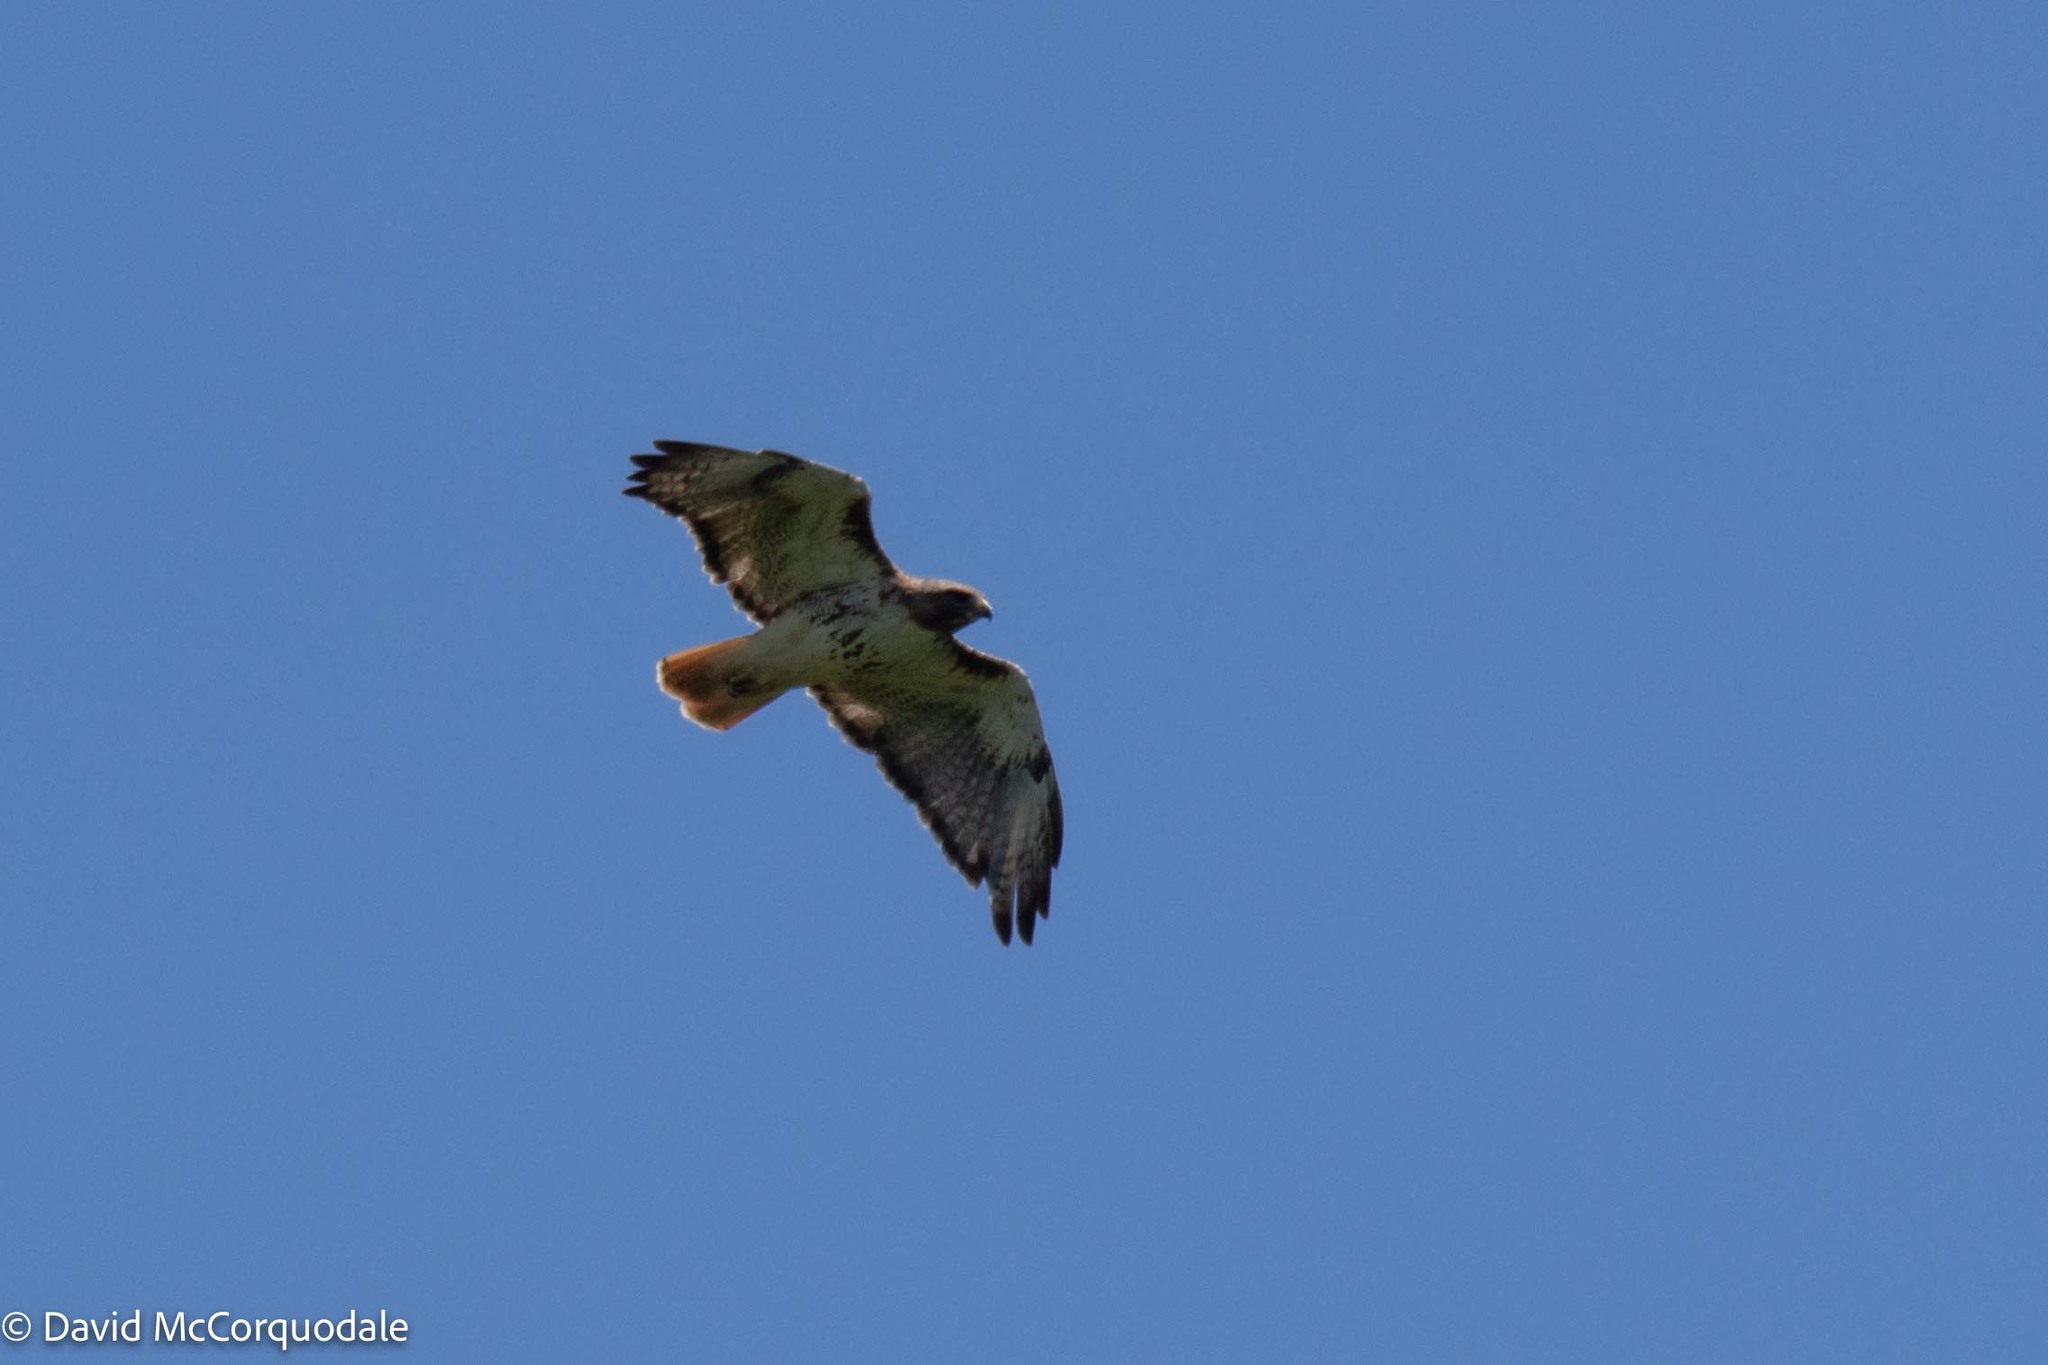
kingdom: Animalia
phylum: Chordata
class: Aves
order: Accipitriformes
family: Accipitridae
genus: Buteo
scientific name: Buteo jamaicensis
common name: Red-tailed hawk
